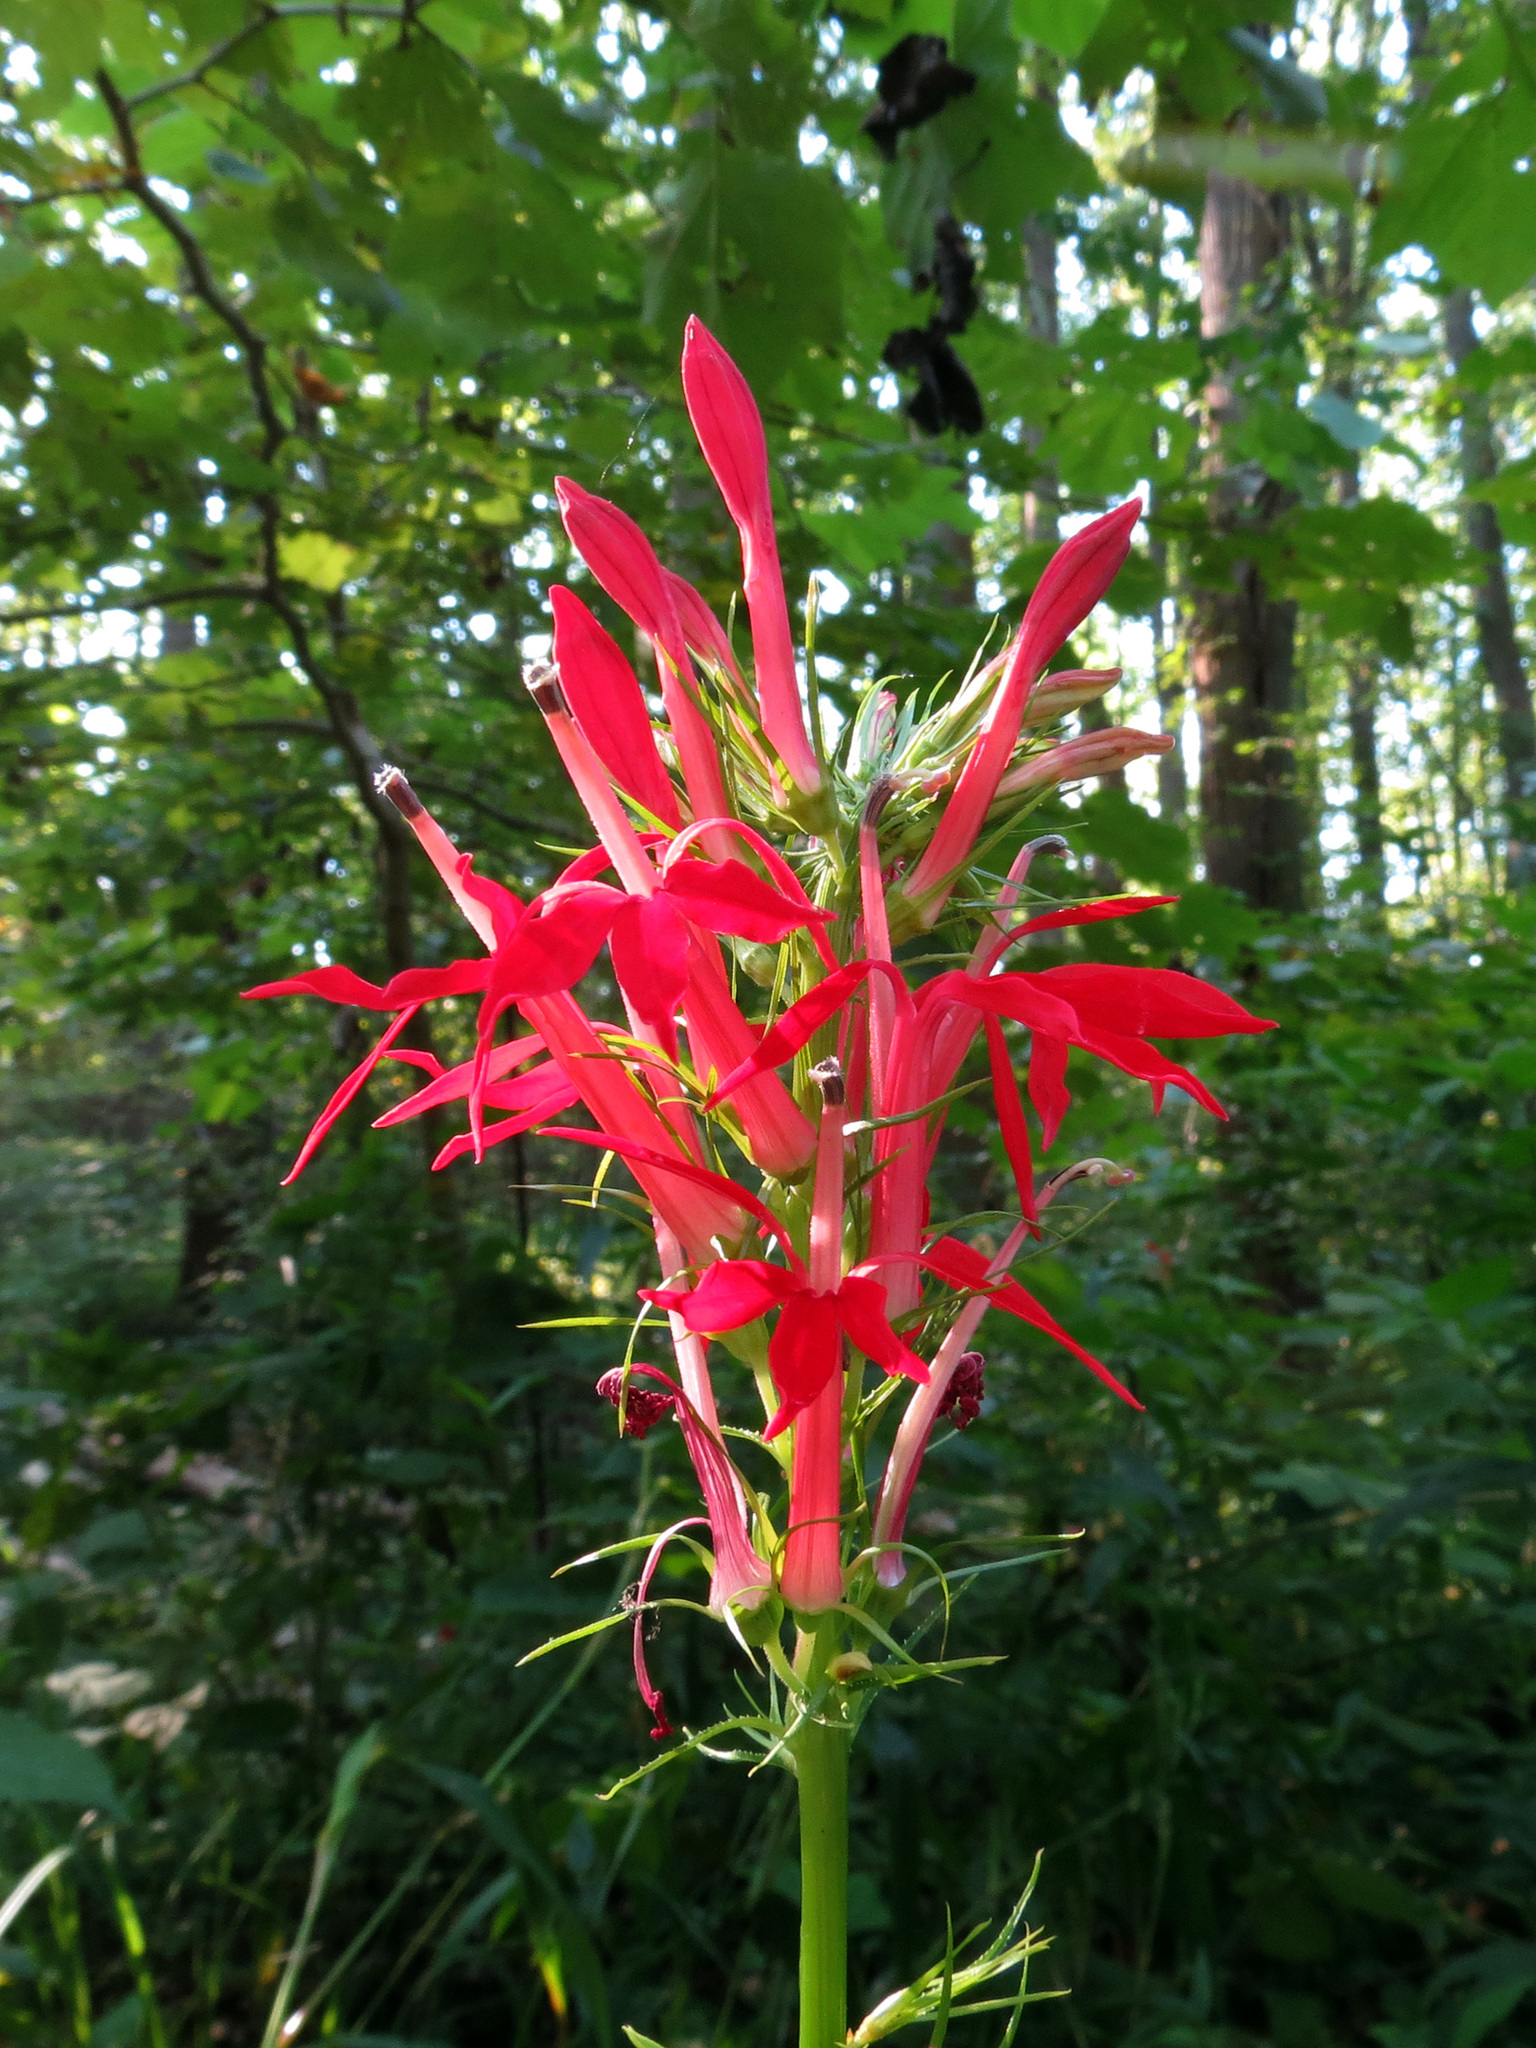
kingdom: Plantae
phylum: Tracheophyta
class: Magnoliopsida
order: Asterales
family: Campanulaceae
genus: Lobelia
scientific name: Lobelia cardinalis
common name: Cardinal flower
